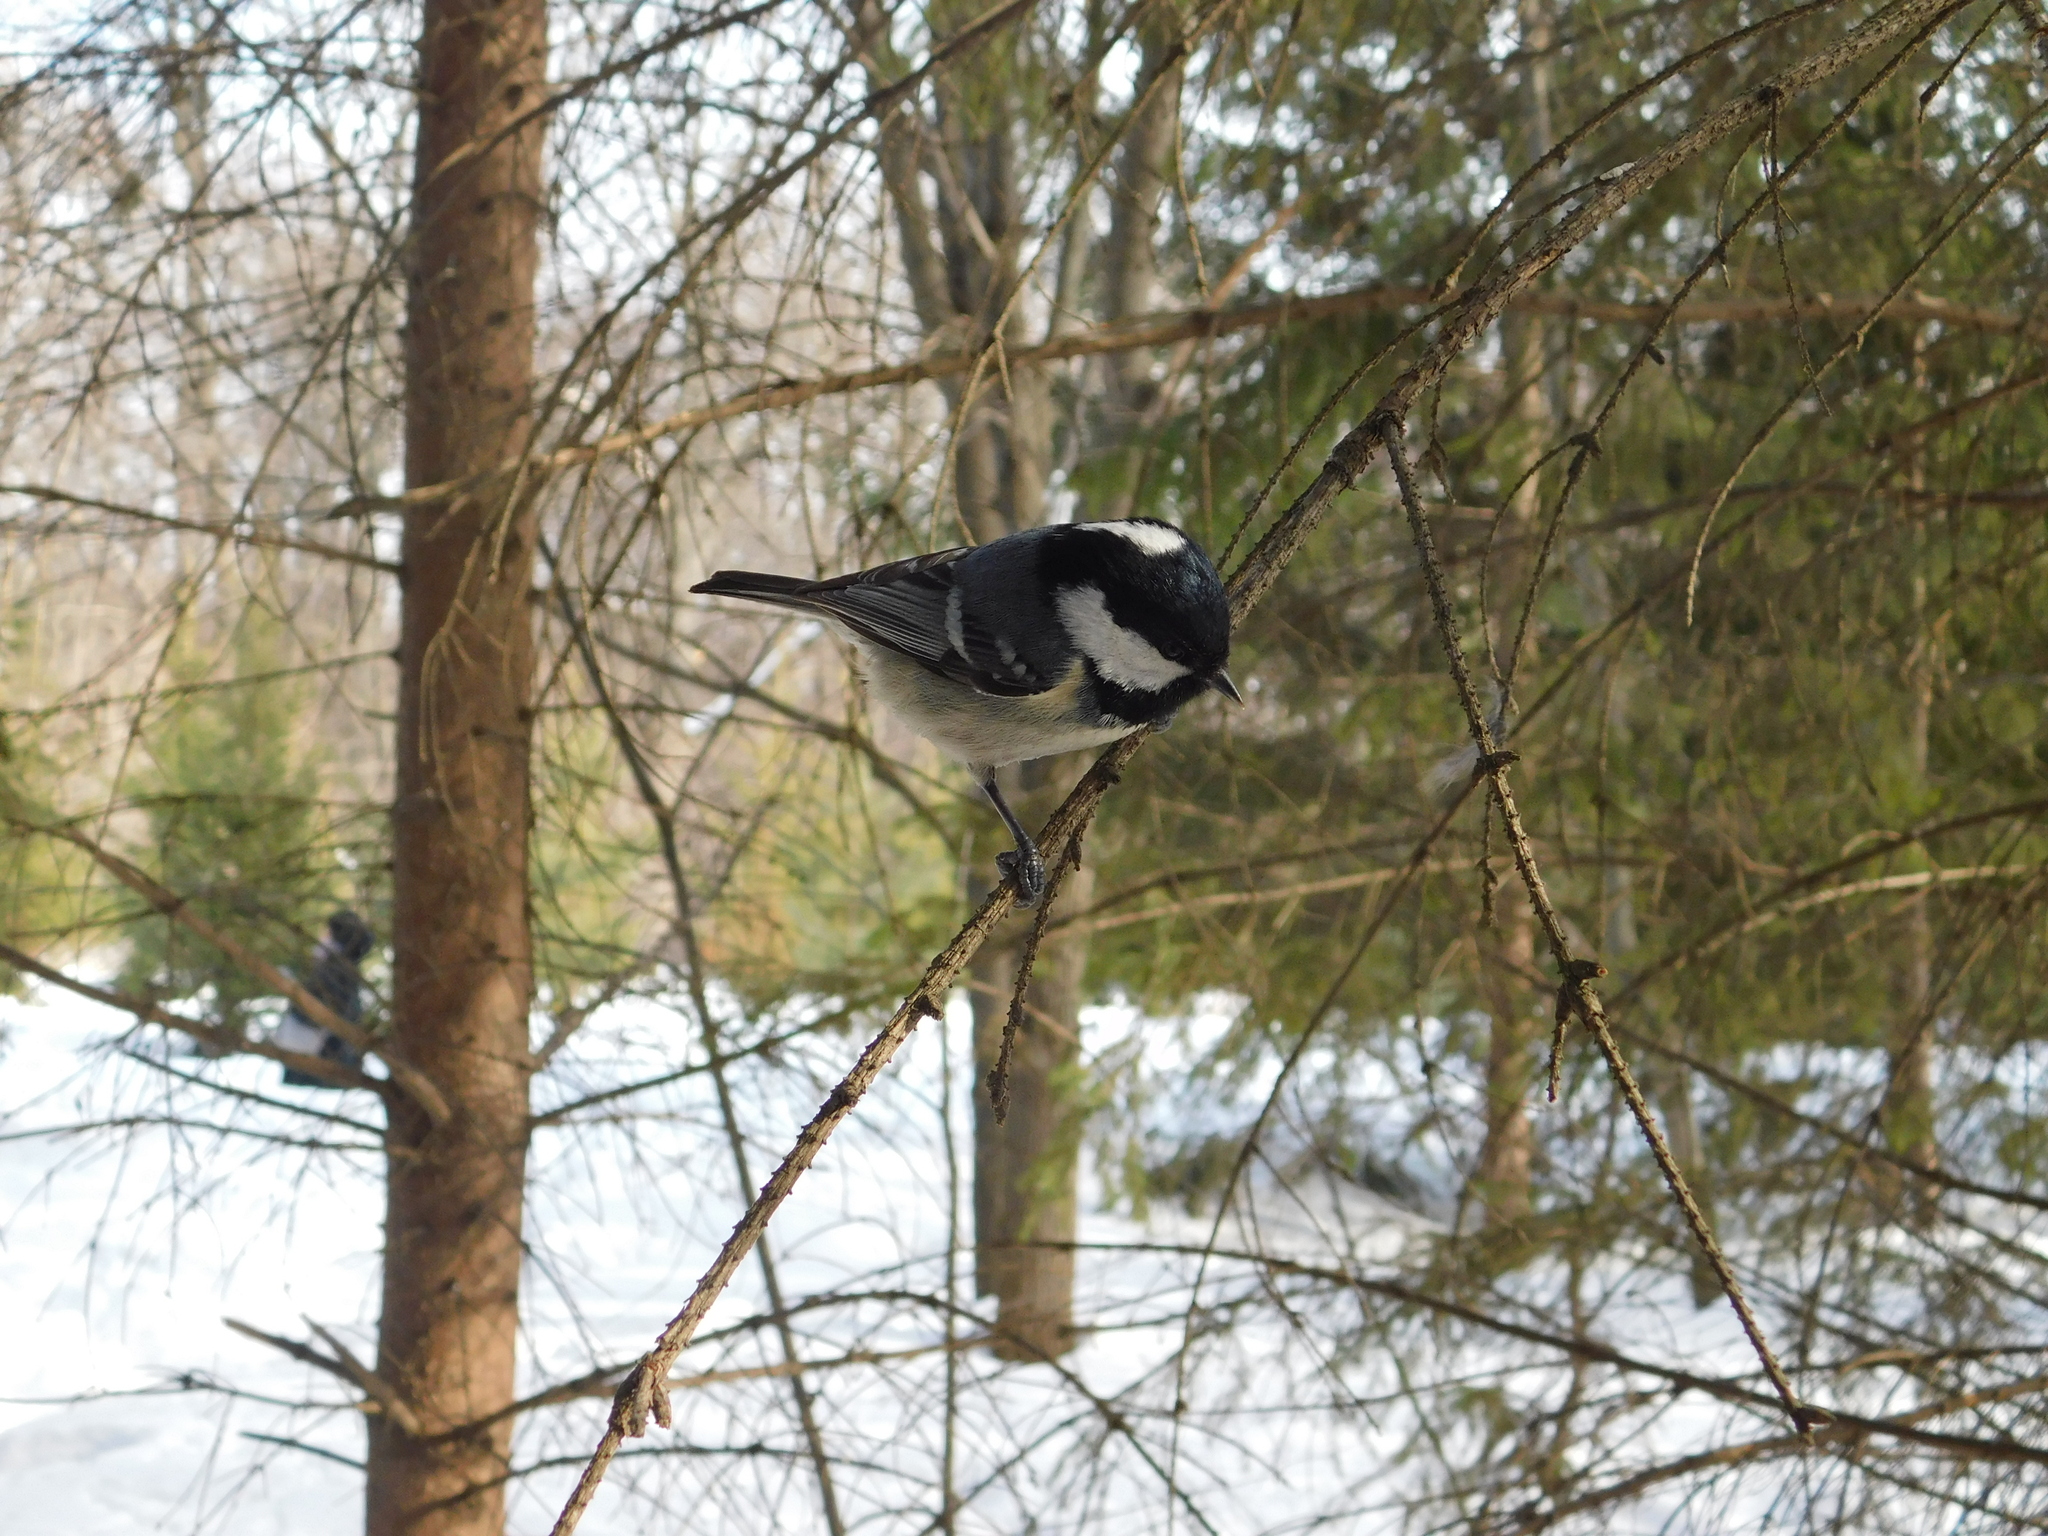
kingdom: Animalia
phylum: Chordata
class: Aves
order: Passeriformes
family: Paridae
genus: Periparus
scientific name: Periparus ater
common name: Coal tit
